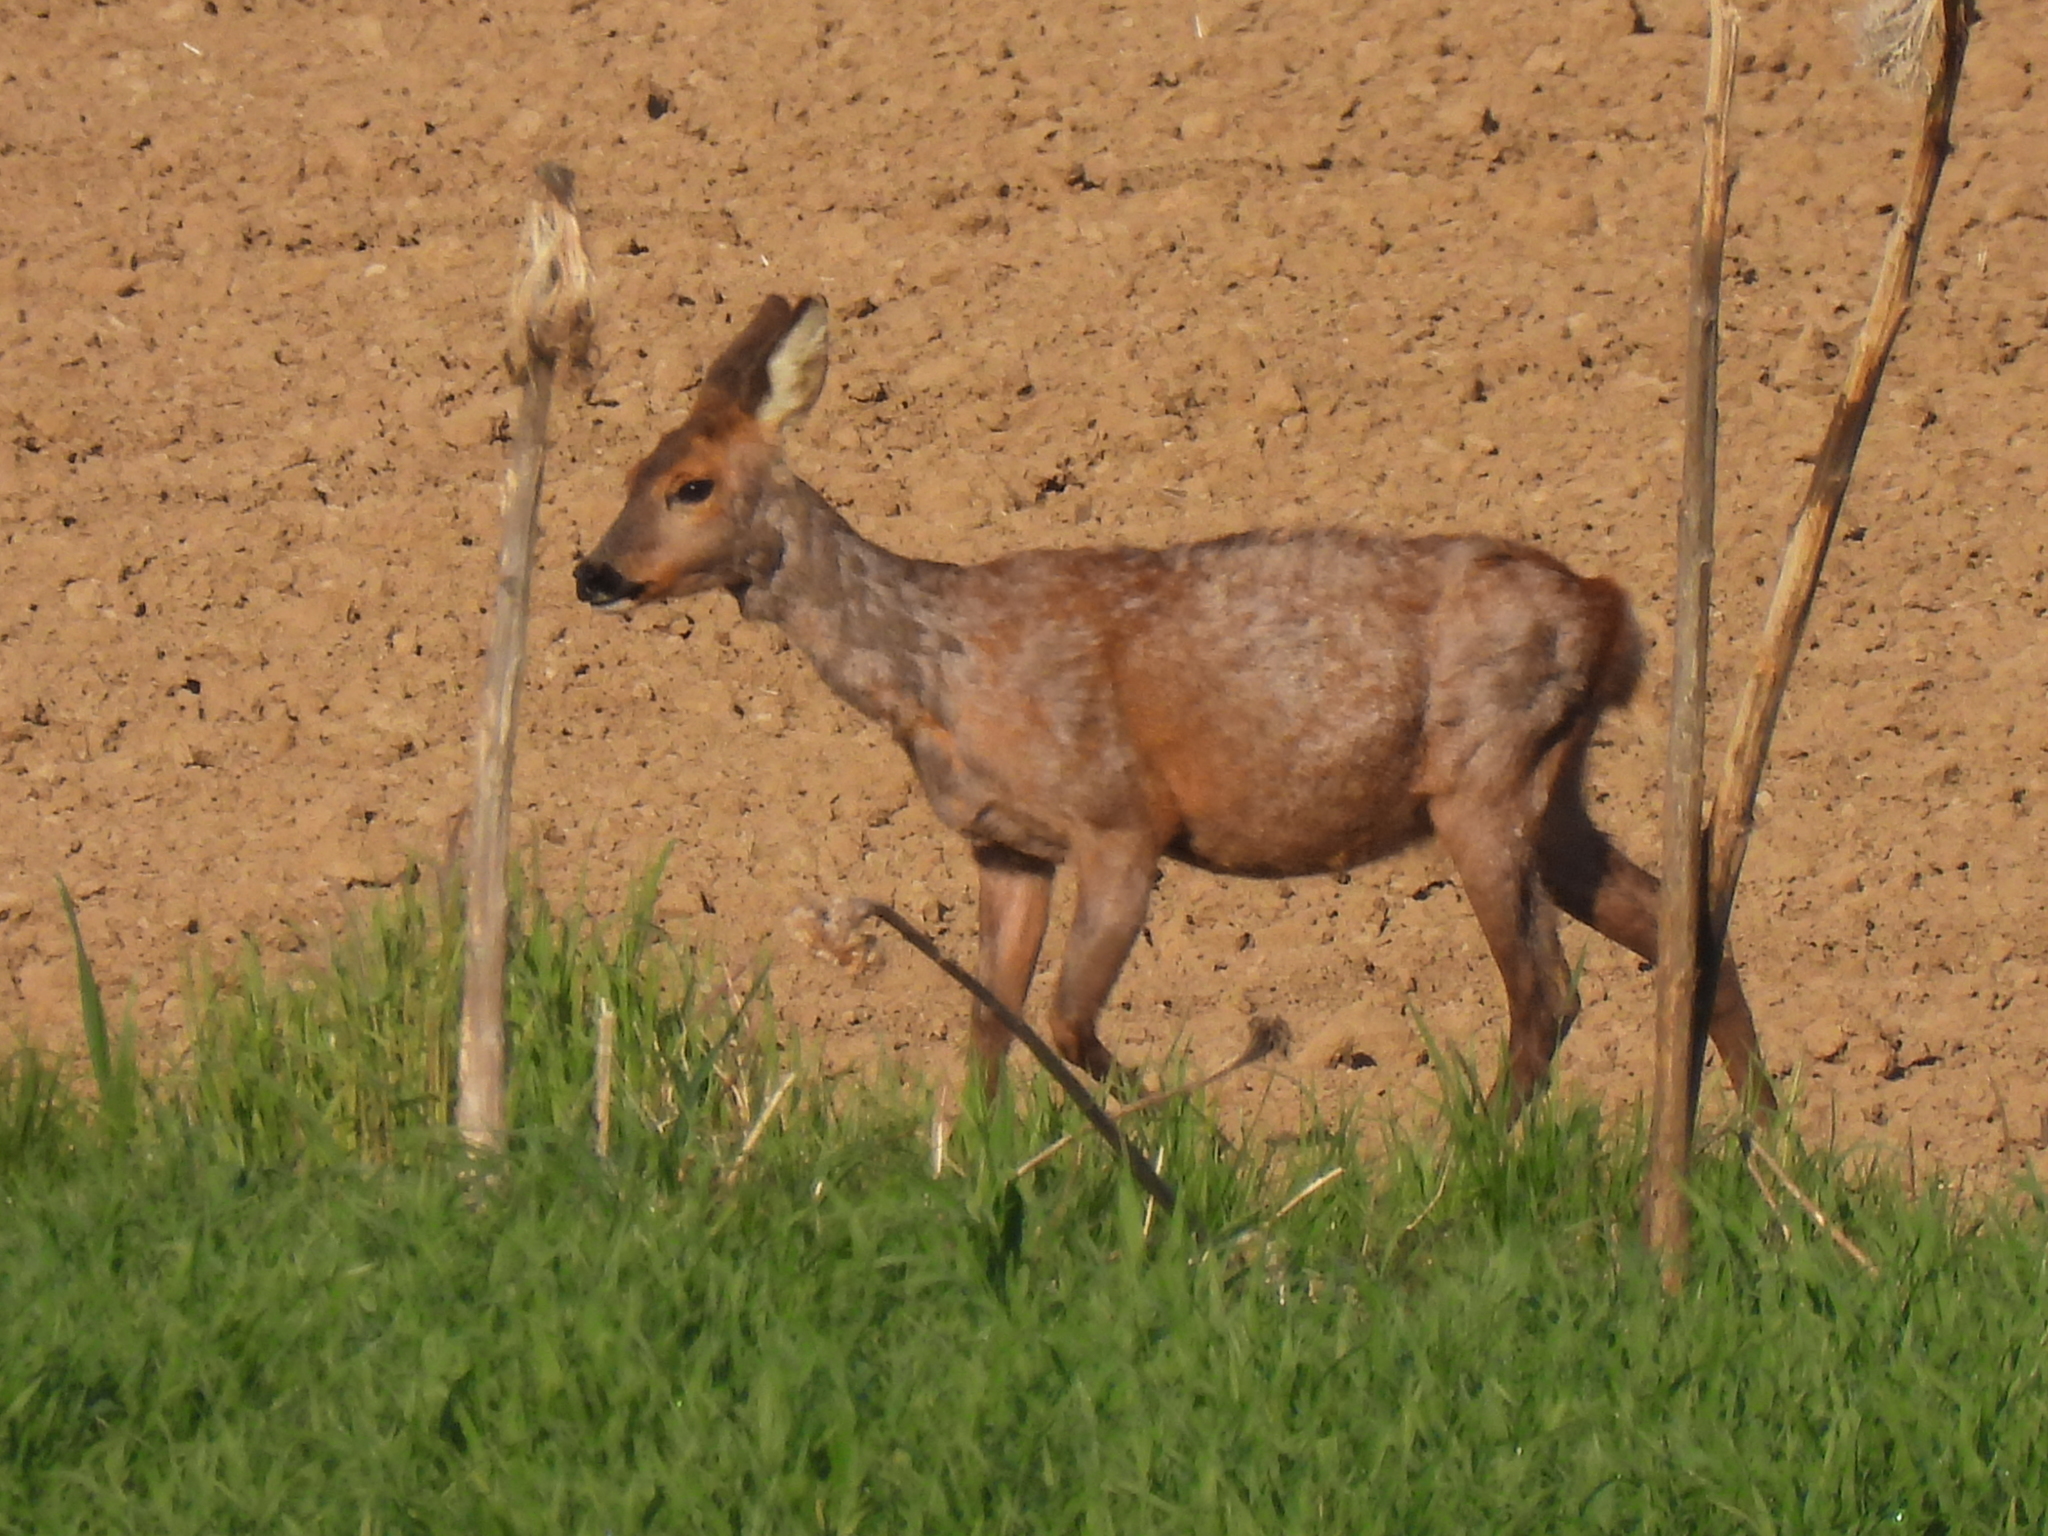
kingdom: Animalia
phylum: Chordata
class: Mammalia
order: Artiodactyla
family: Cervidae
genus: Capreolus
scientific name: Capreolus capreolus
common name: Western roe deer
